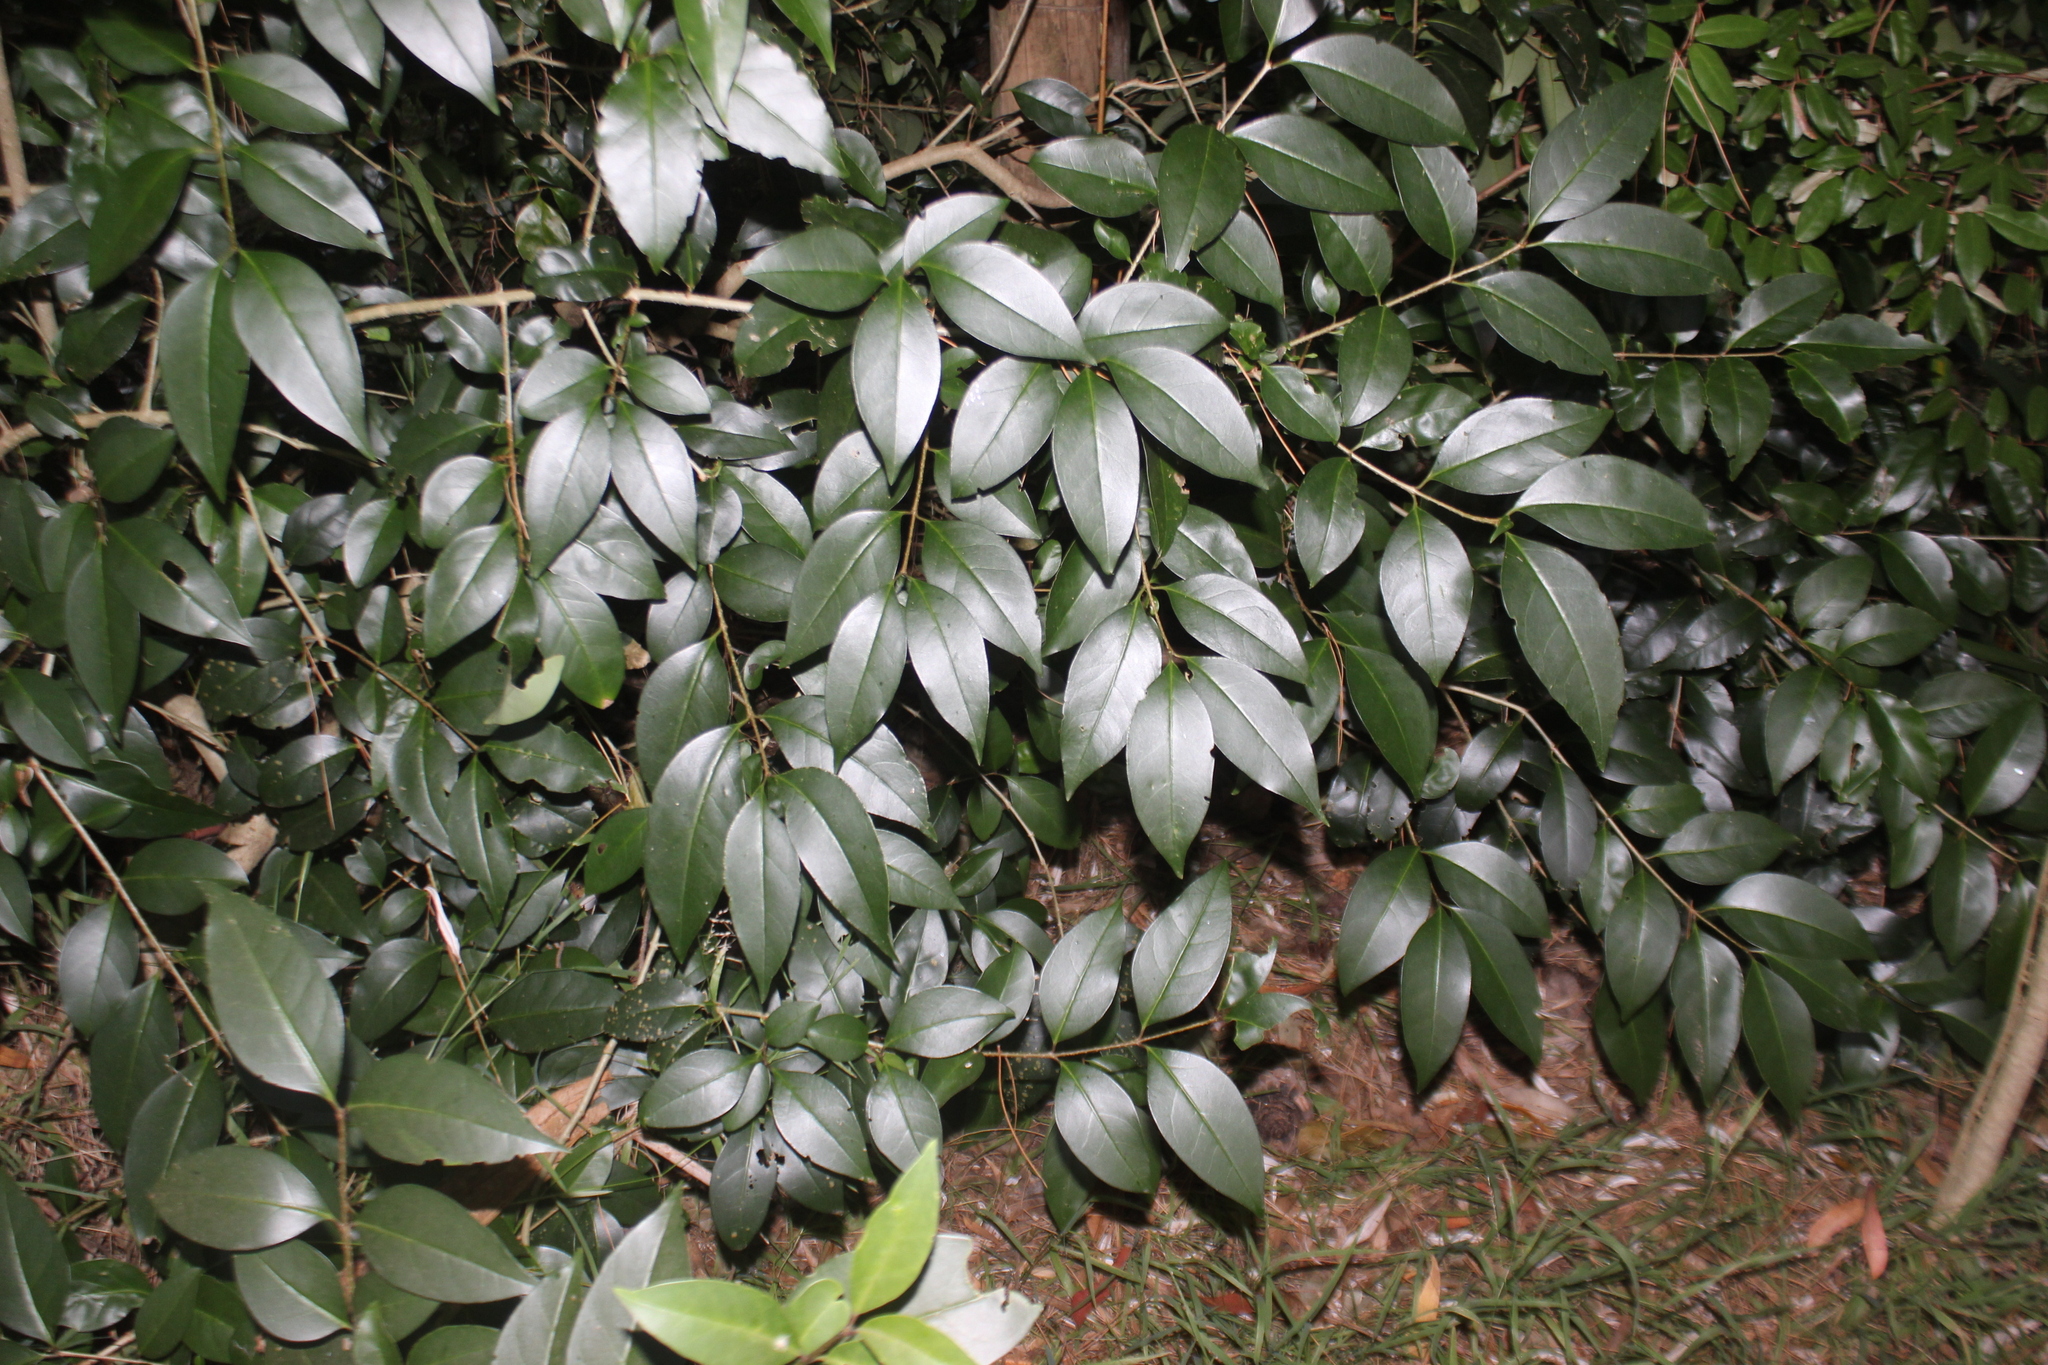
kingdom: Plantae
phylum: Tracheophyta
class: Magnoliopsida
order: Lamiales
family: Oleaceae
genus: Ligustrum
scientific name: Ligustrum lucidum
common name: Glossy privet
